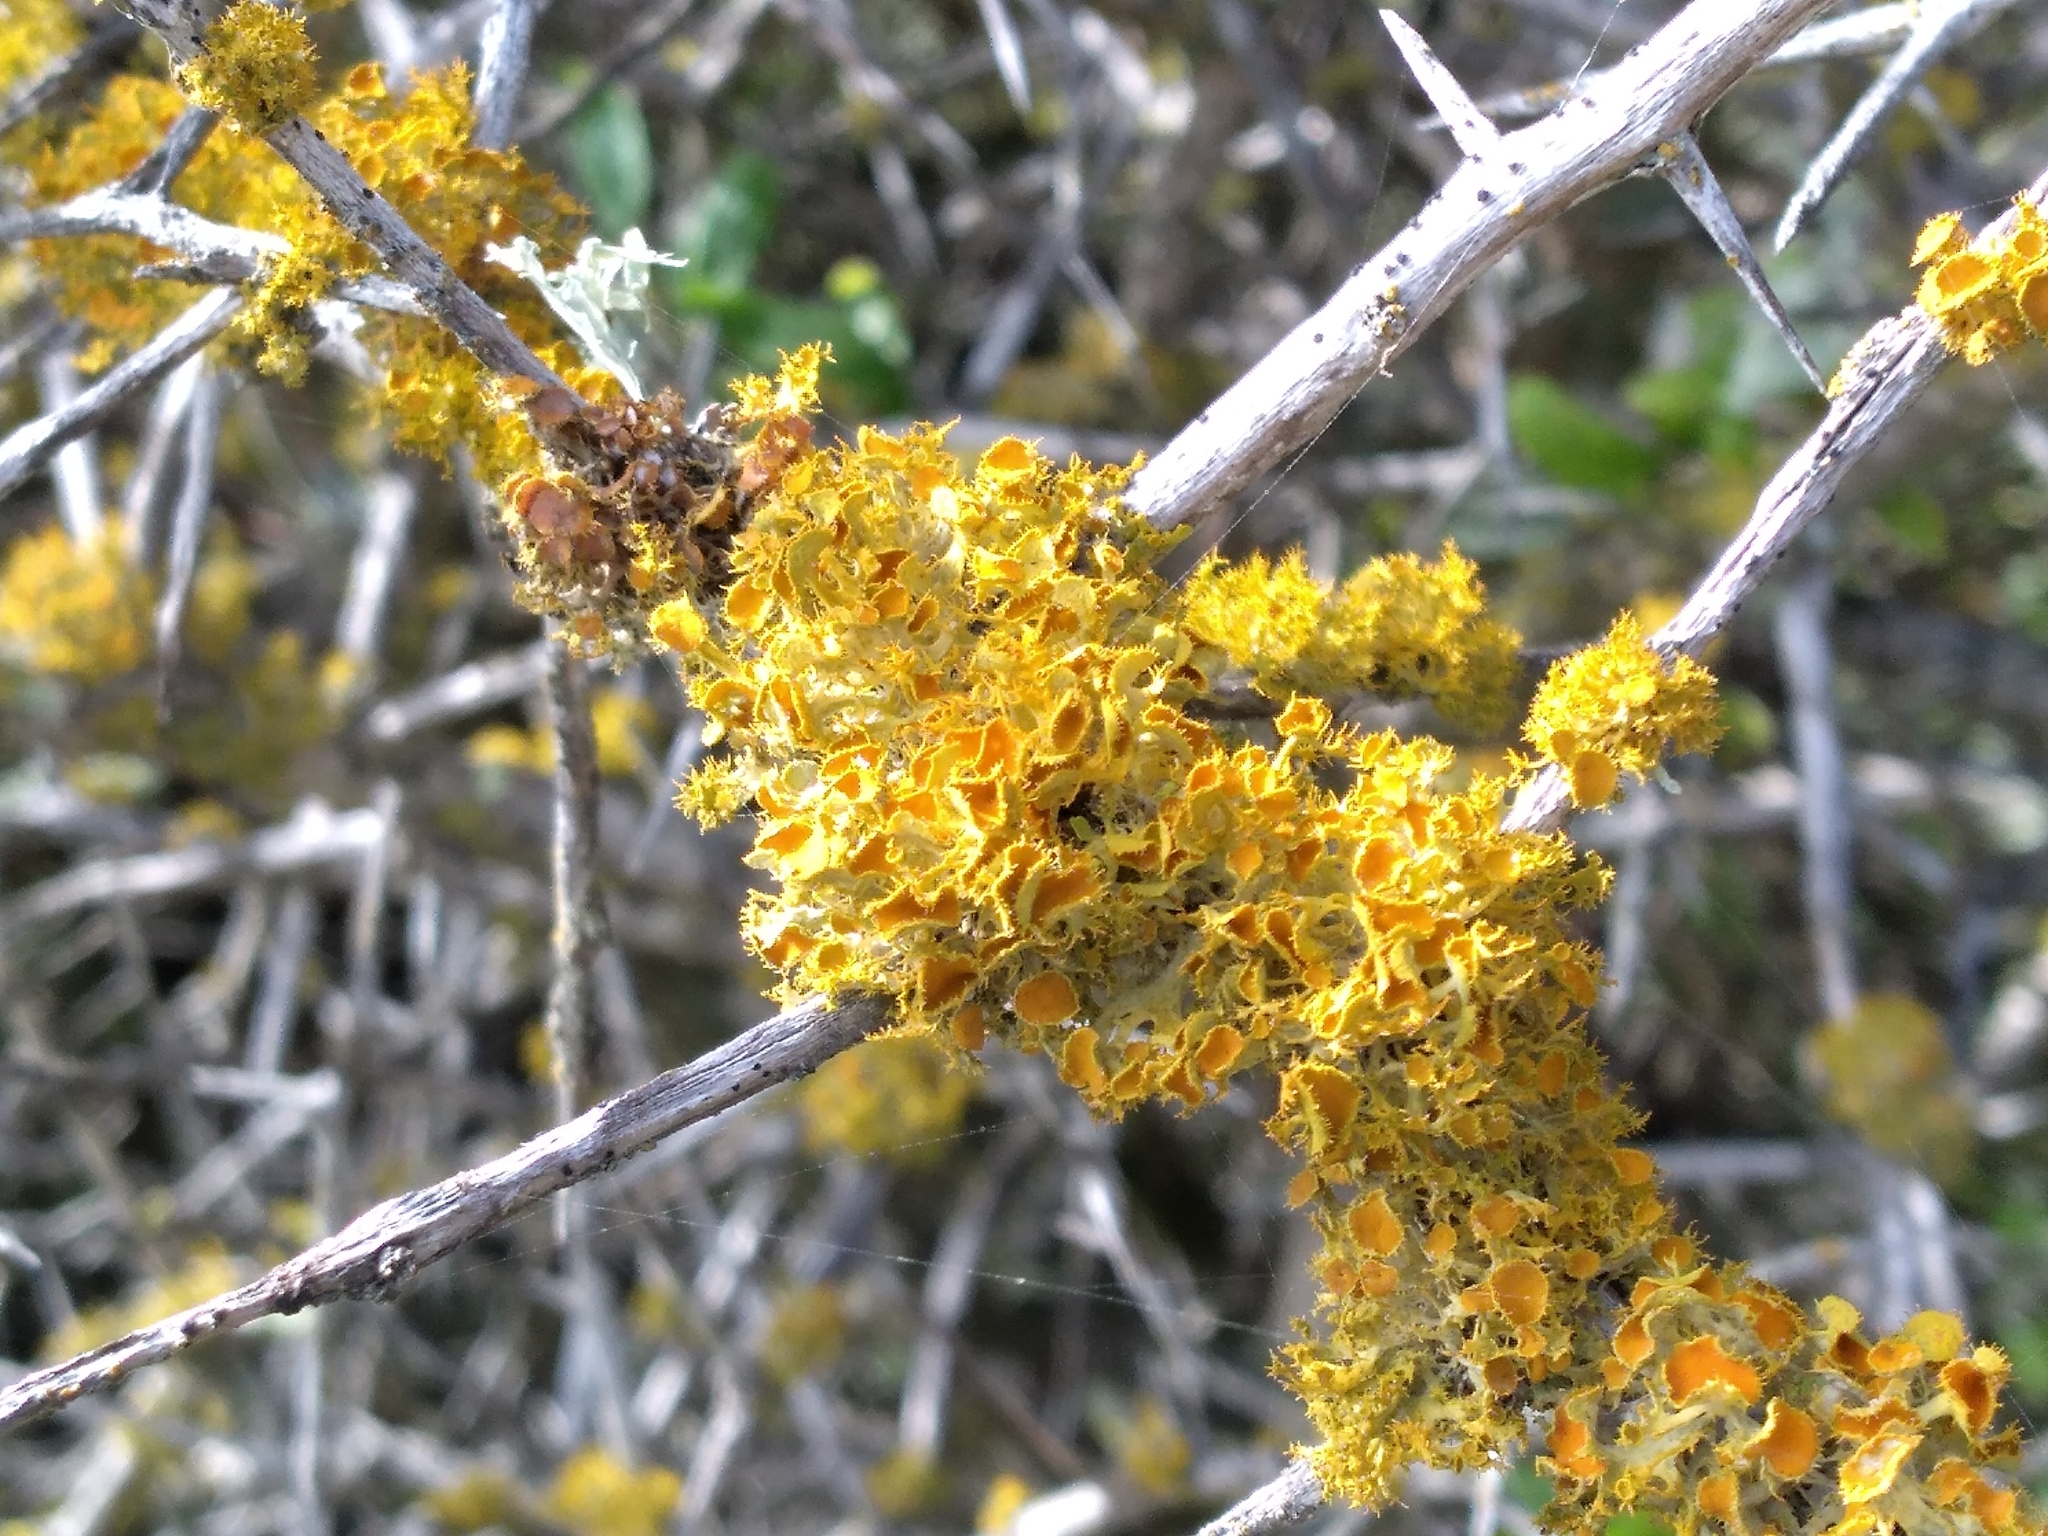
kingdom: Fungi
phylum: Ascomycota
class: Lecanoromycetes
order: Teloschistales
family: Teloschistaceae
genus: Niorma
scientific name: Niorma chrysophthalma
